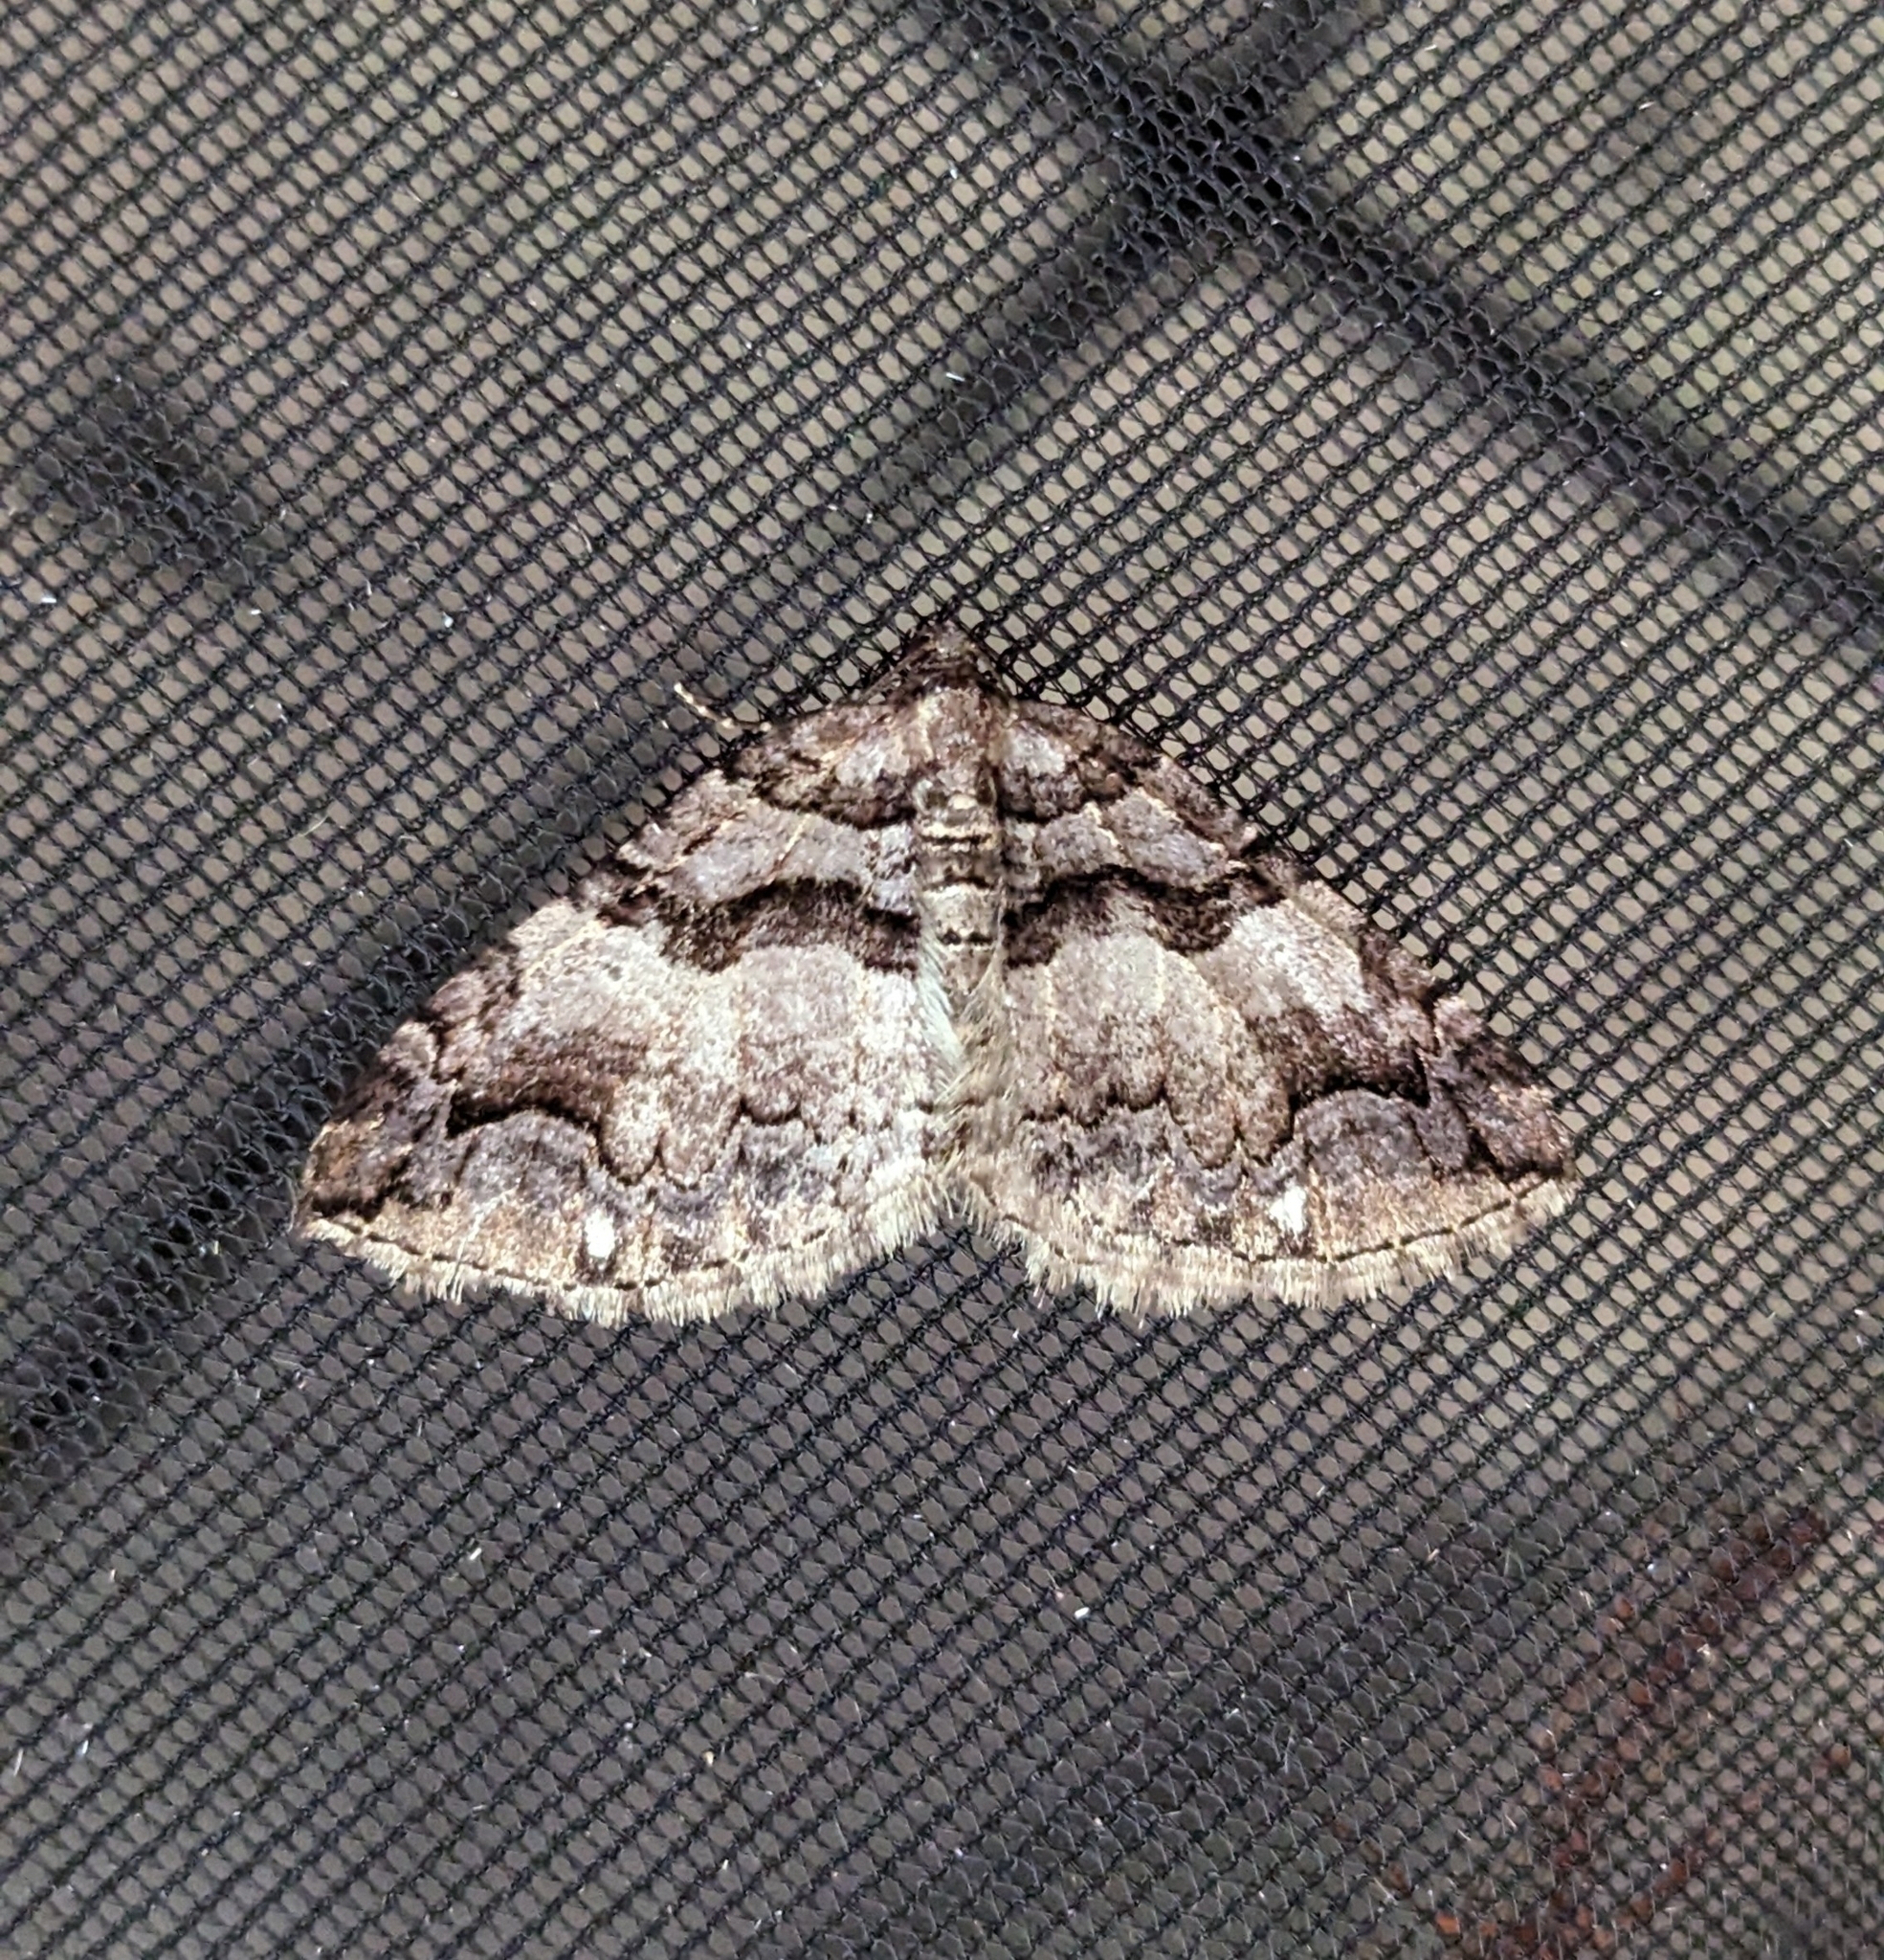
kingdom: Animalia
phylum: Arthropoda
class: Insecta
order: Lepidoptera
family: Geometridae
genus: Anticlea
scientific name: Anticlea vasiliata
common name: Variable carpet
